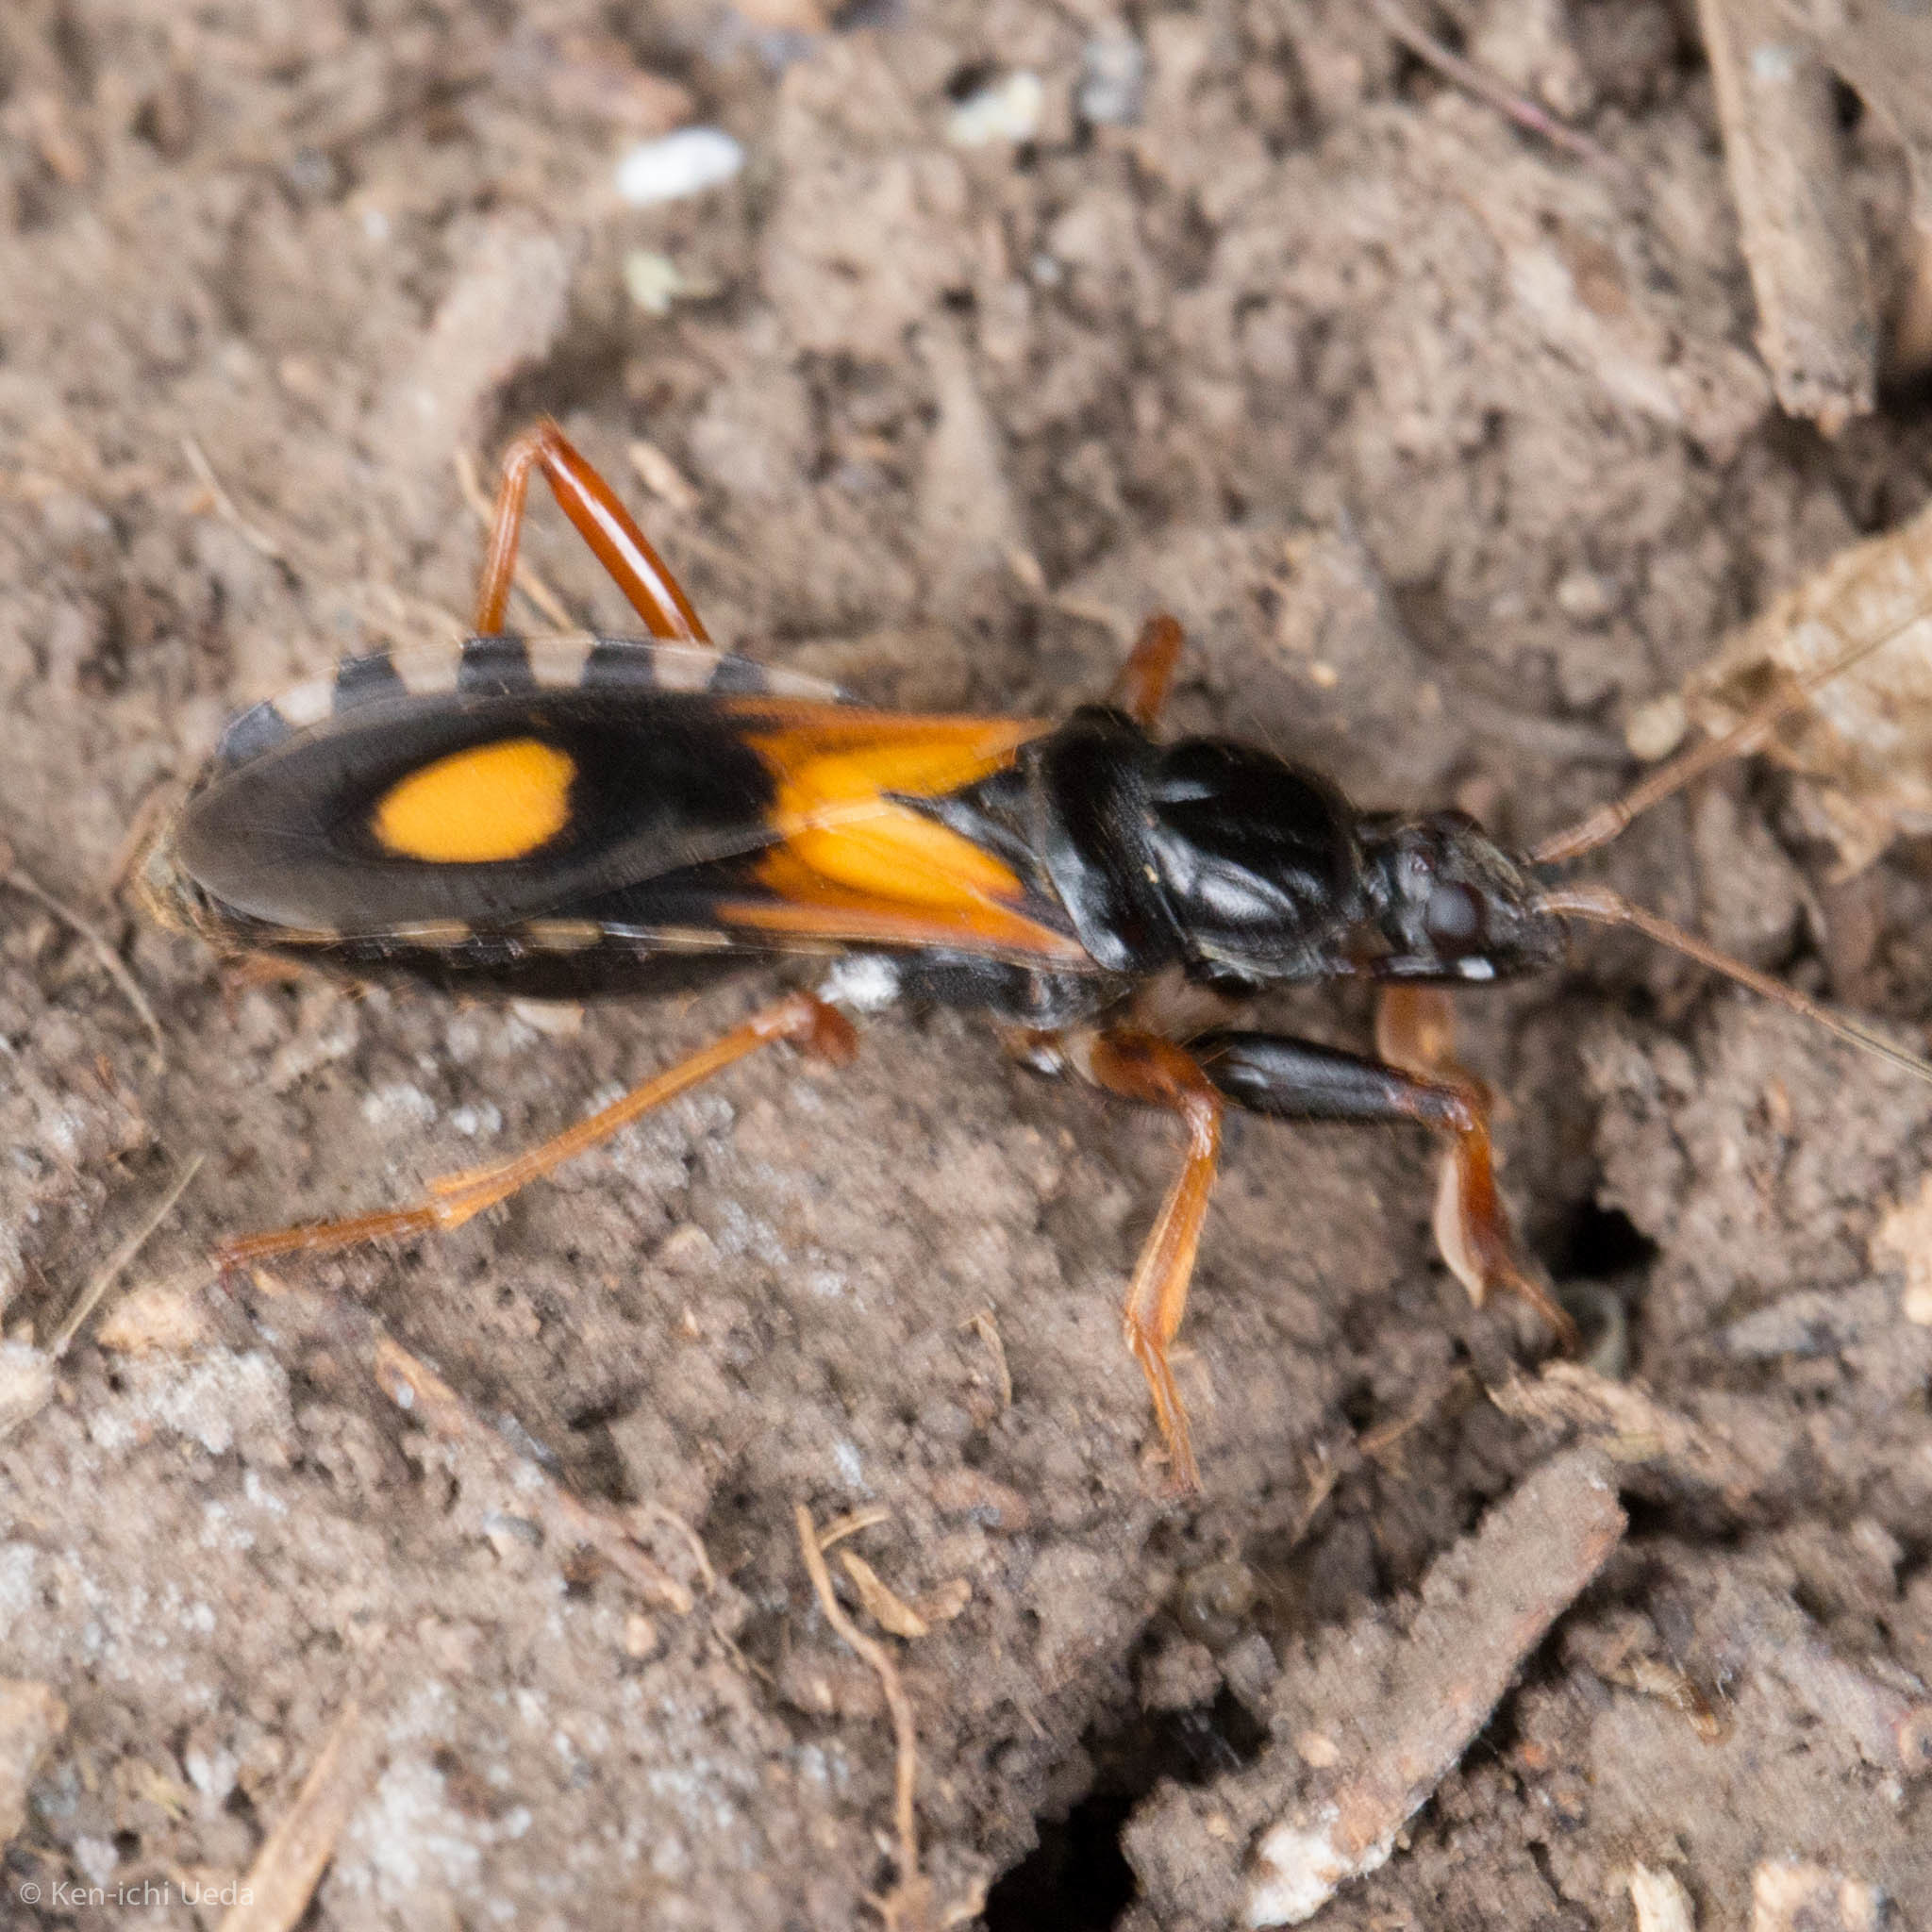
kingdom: Animalia
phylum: Arthropoda
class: Insecta
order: Hemiptera
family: Reduviidae
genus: Rasahus
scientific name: Rasahus biguttatus
